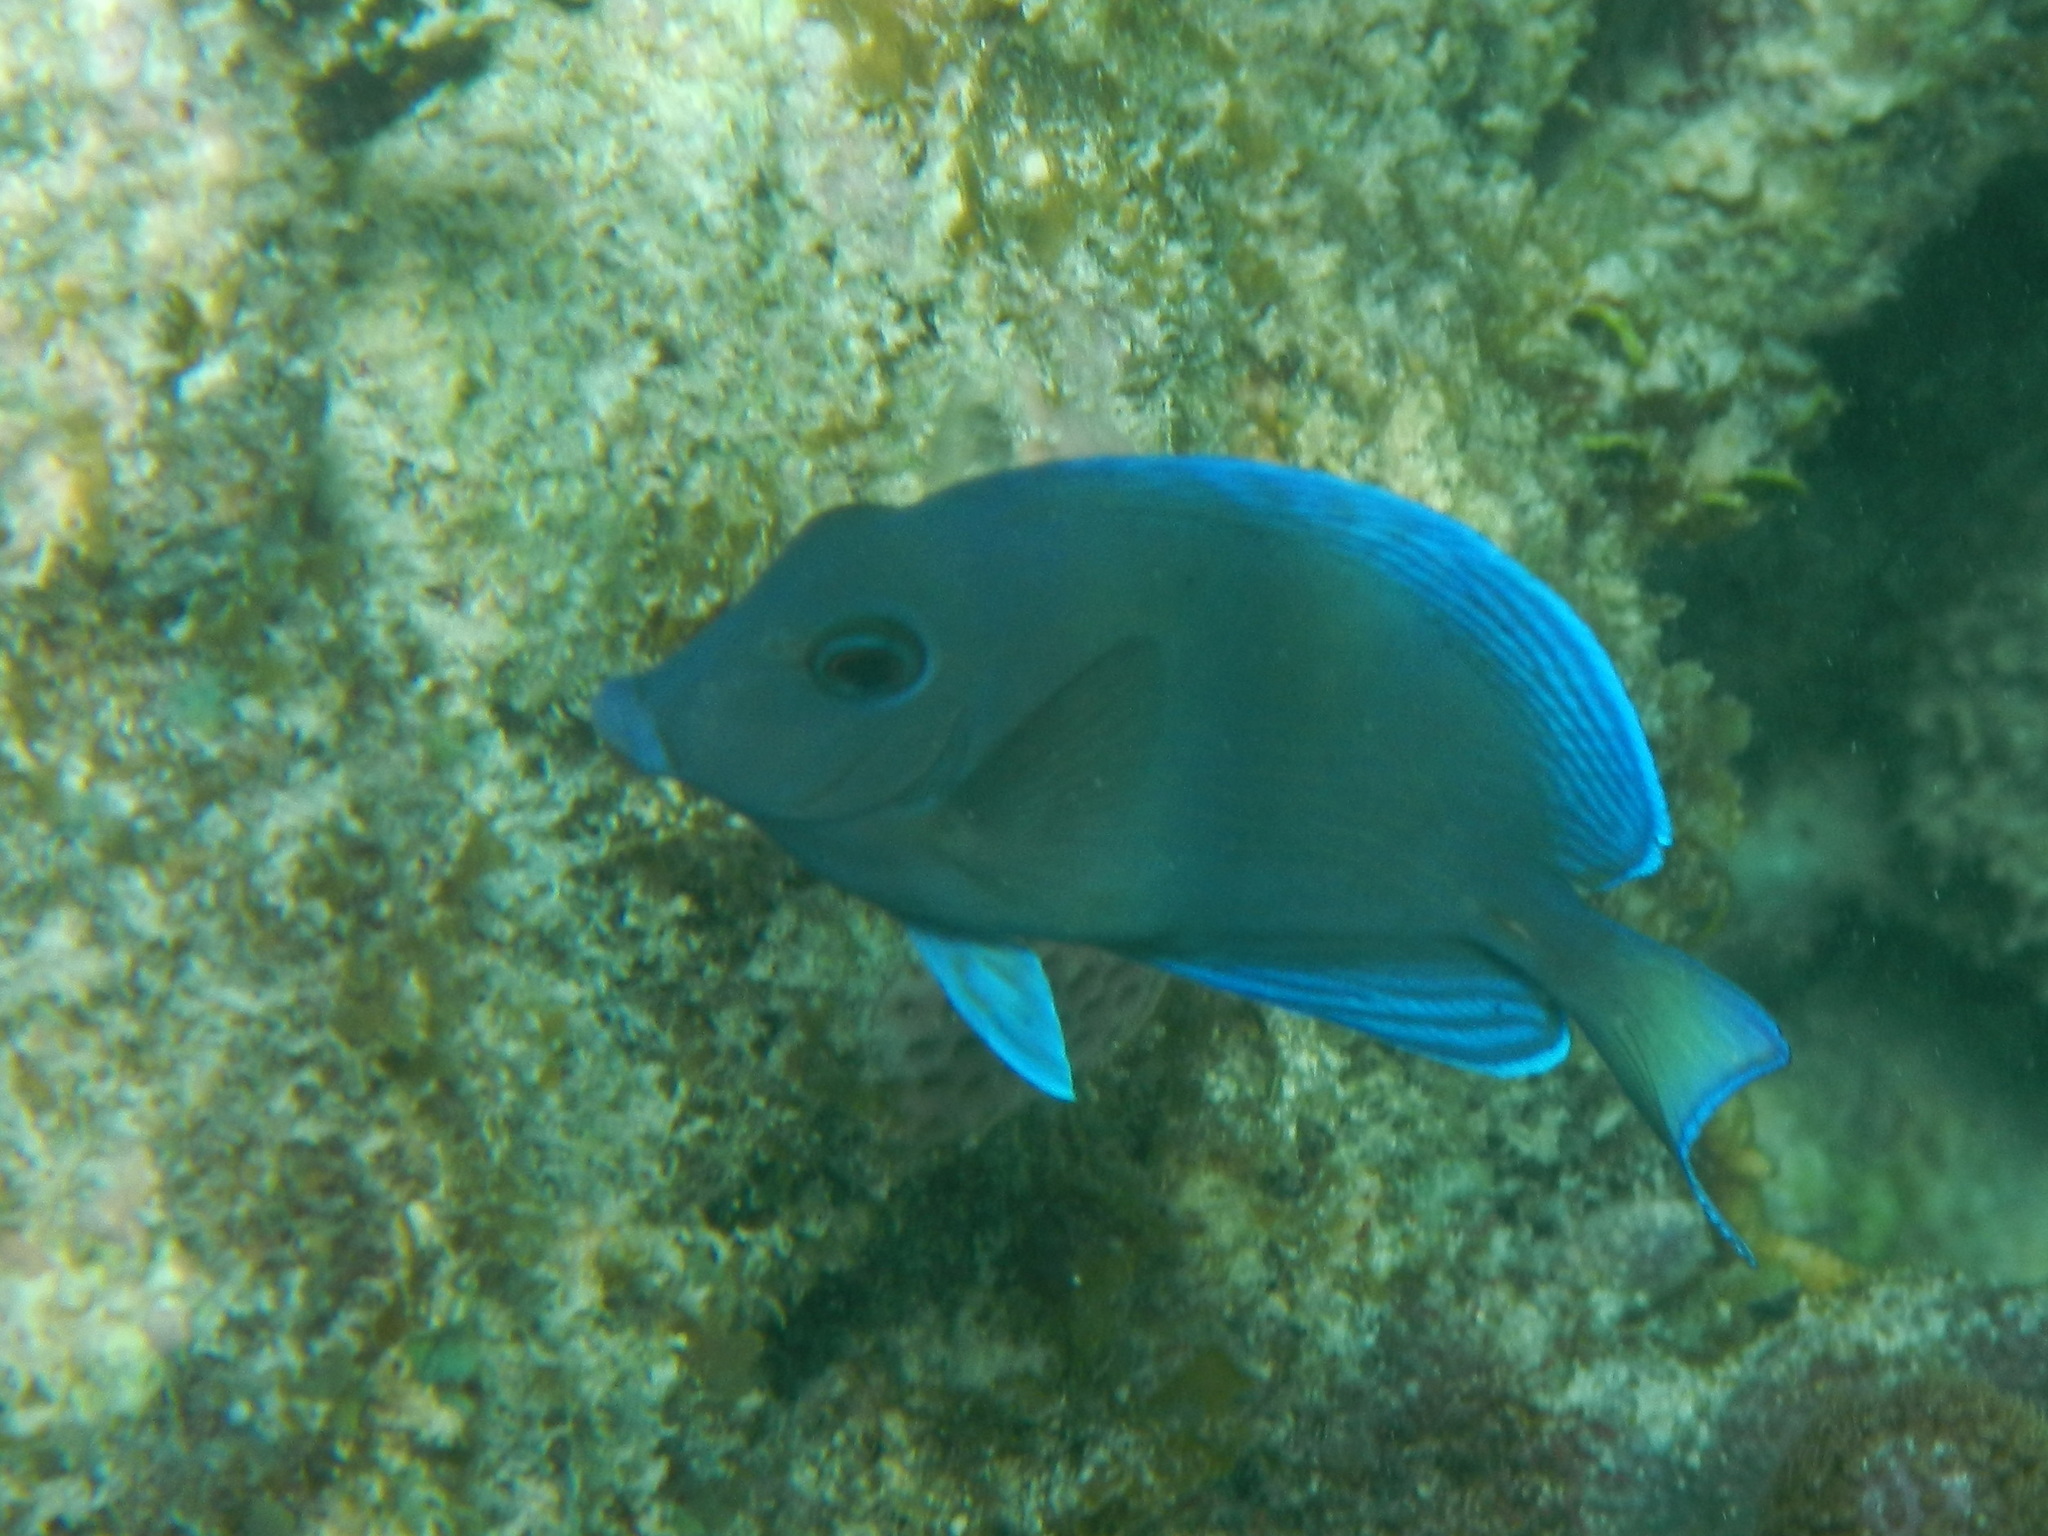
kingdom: Animalia
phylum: Chordata
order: Perciformes
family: Acanthuridae
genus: Acanthurus
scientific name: Acanthurus coeruleus
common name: Blue tang
